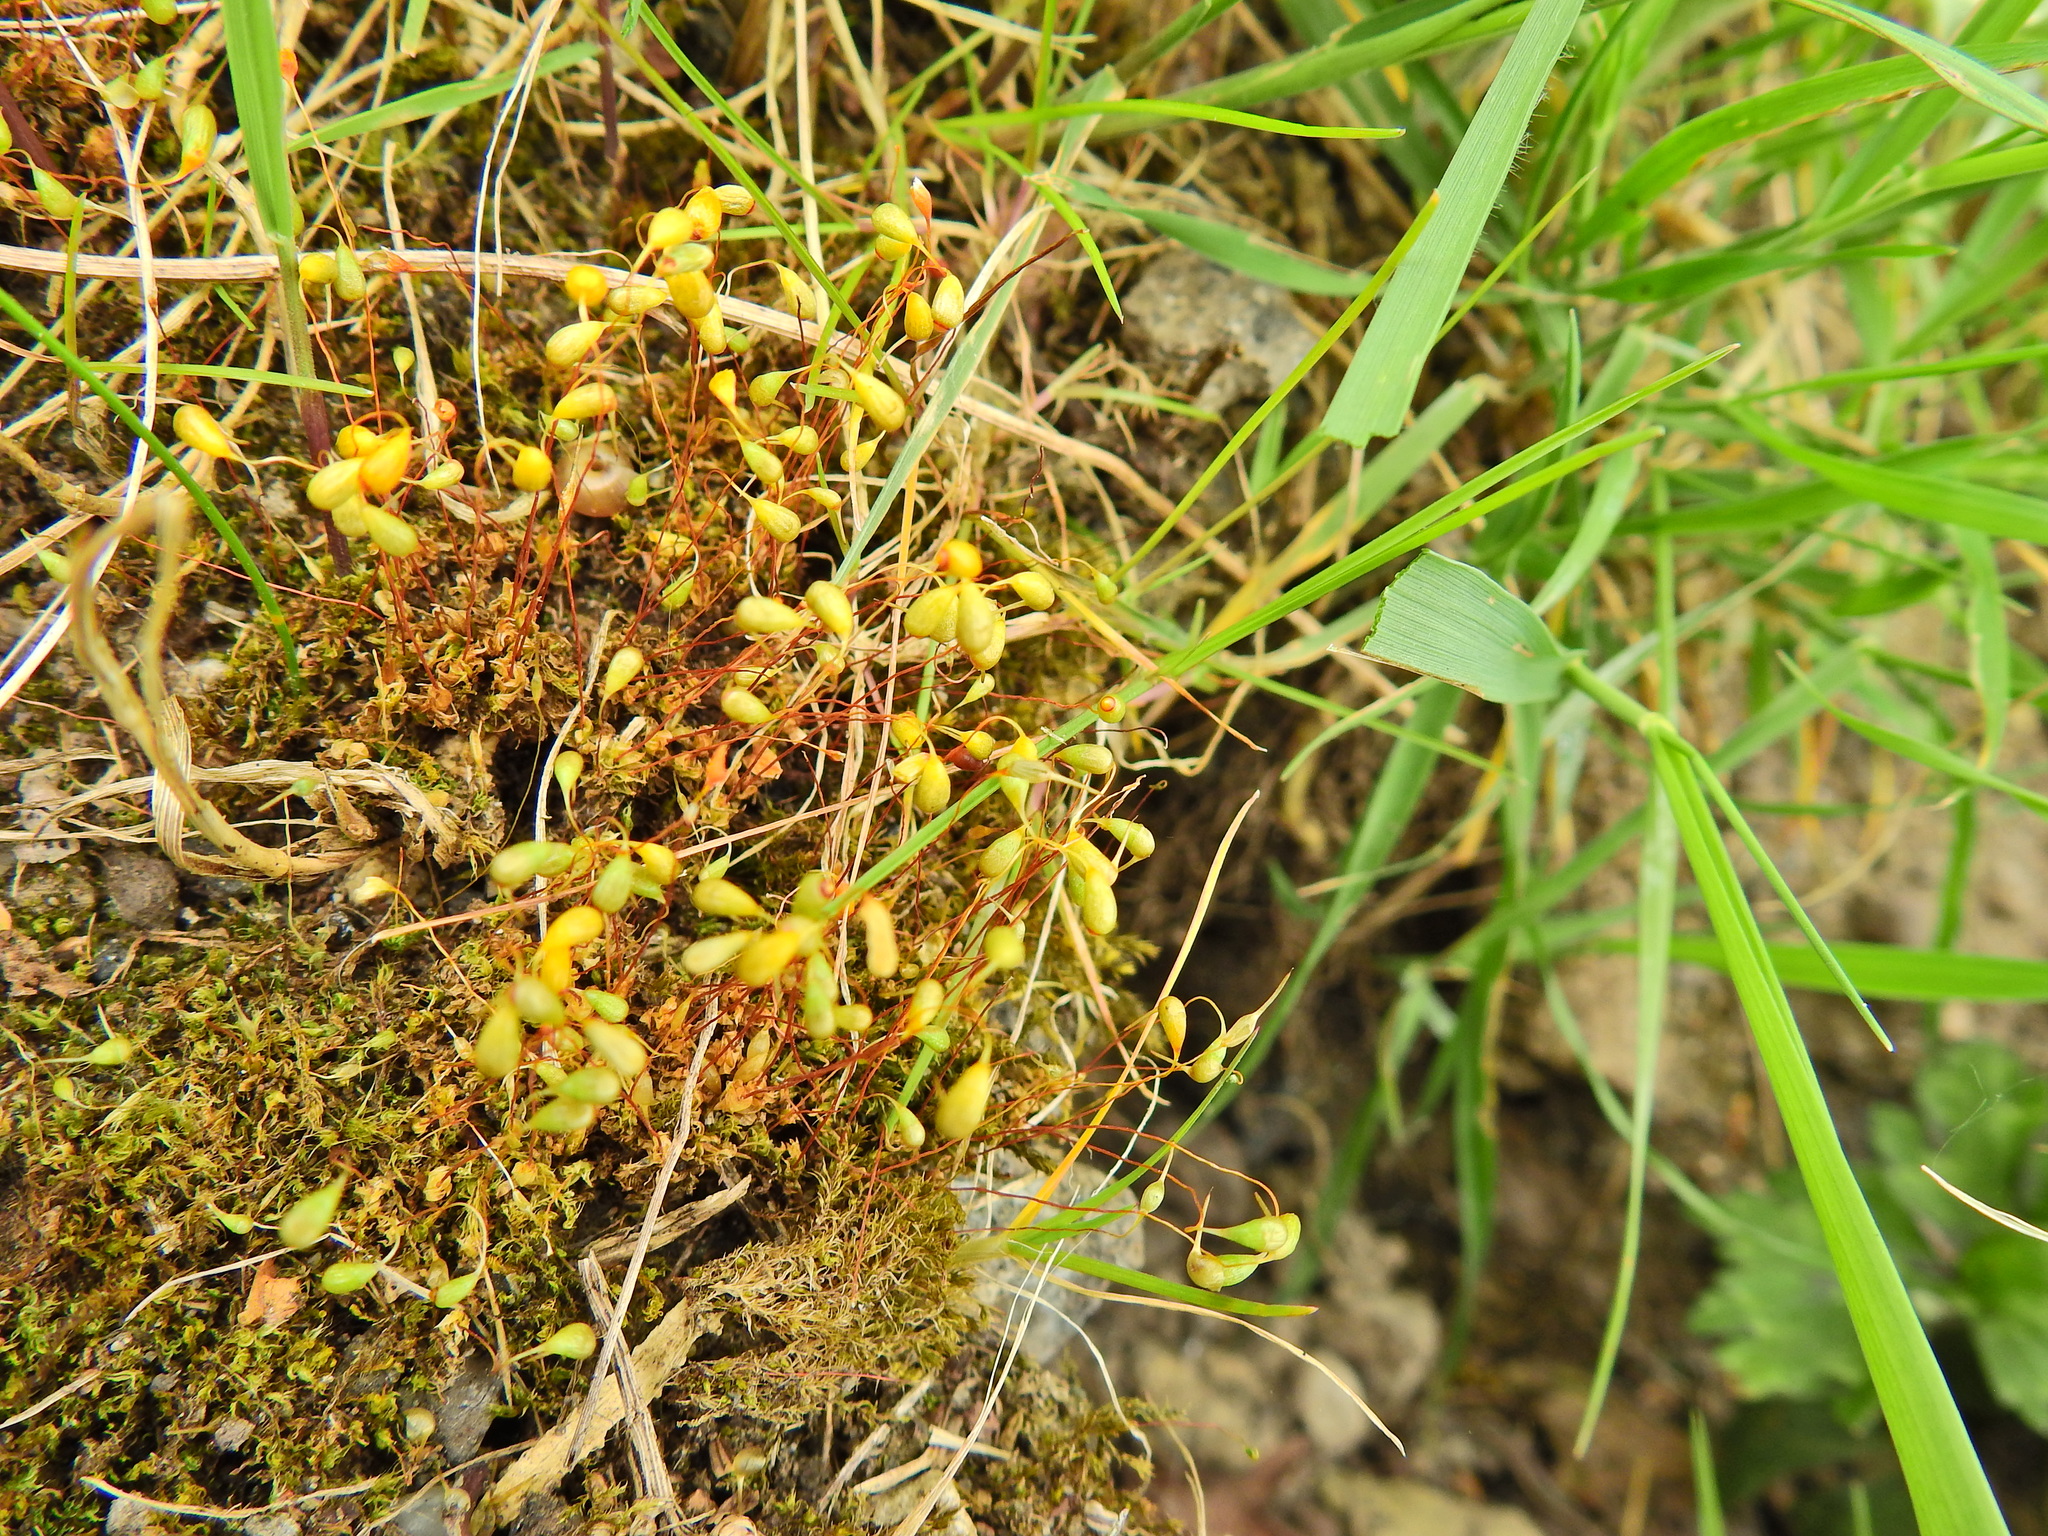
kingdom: Plantae
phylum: Bryophyta
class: Bryopsida
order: Funariales
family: Funariaceae
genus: Funaria
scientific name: Funaria hygrometrica
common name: Common cord moss
